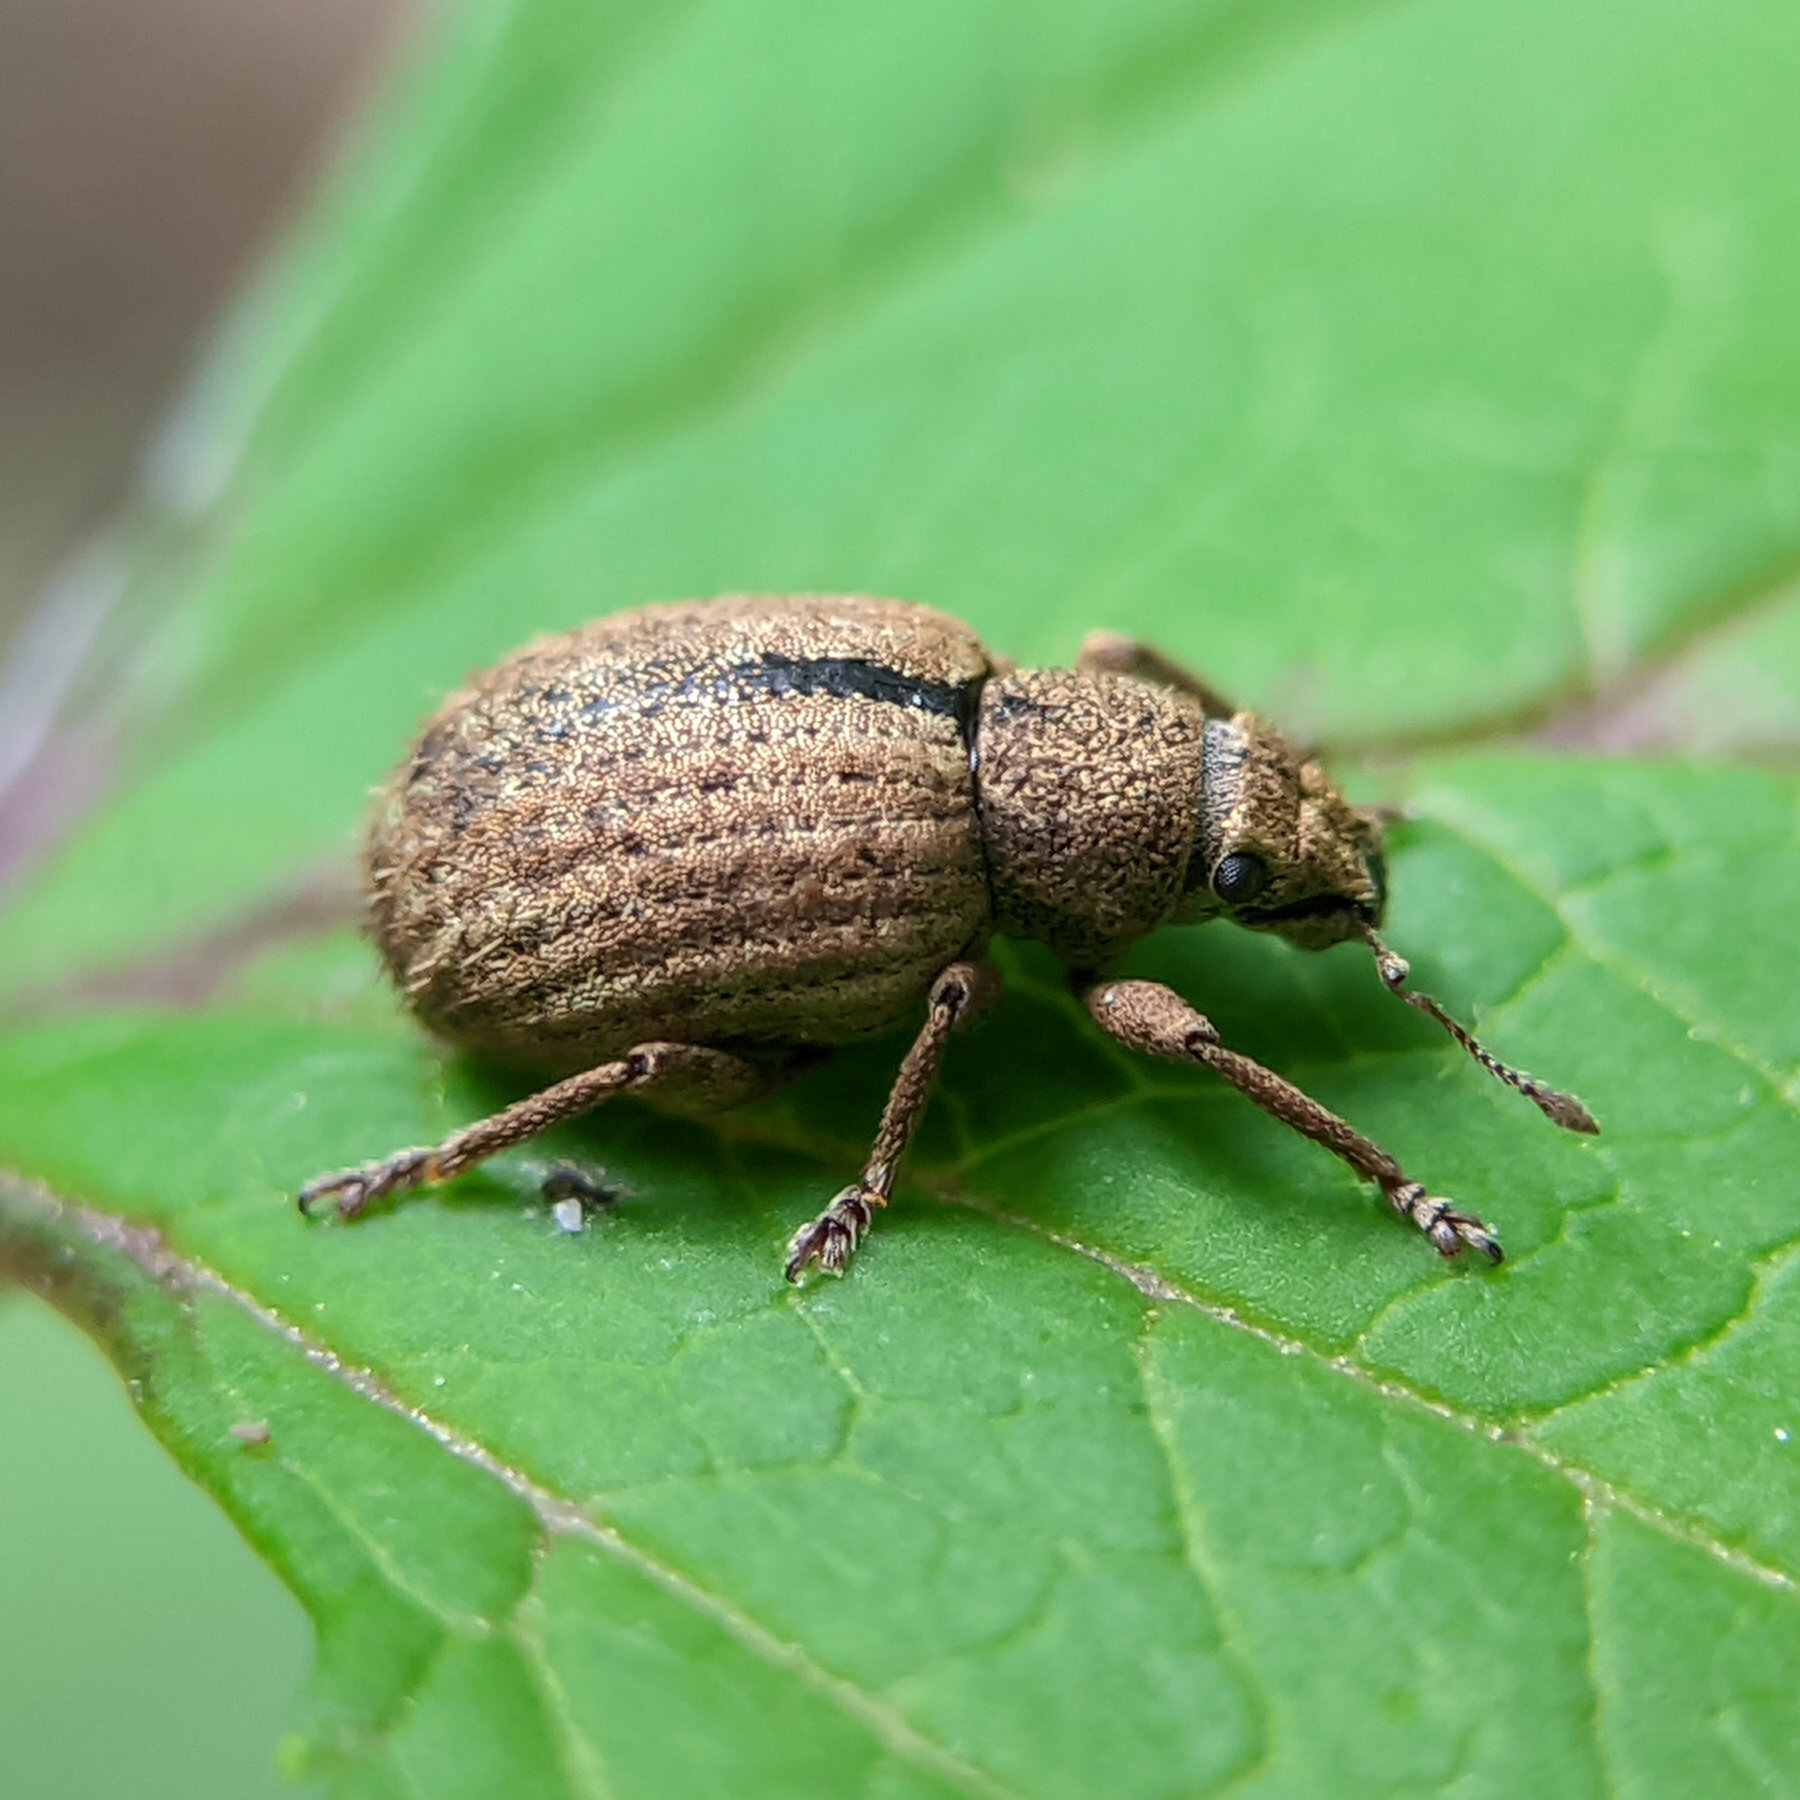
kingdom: Animalia
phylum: Arthropoda
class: Insecta
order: Coleoptera
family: Curculionidae
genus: Strophosoma
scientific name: Strophosoma melanogrammum
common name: Weevil
